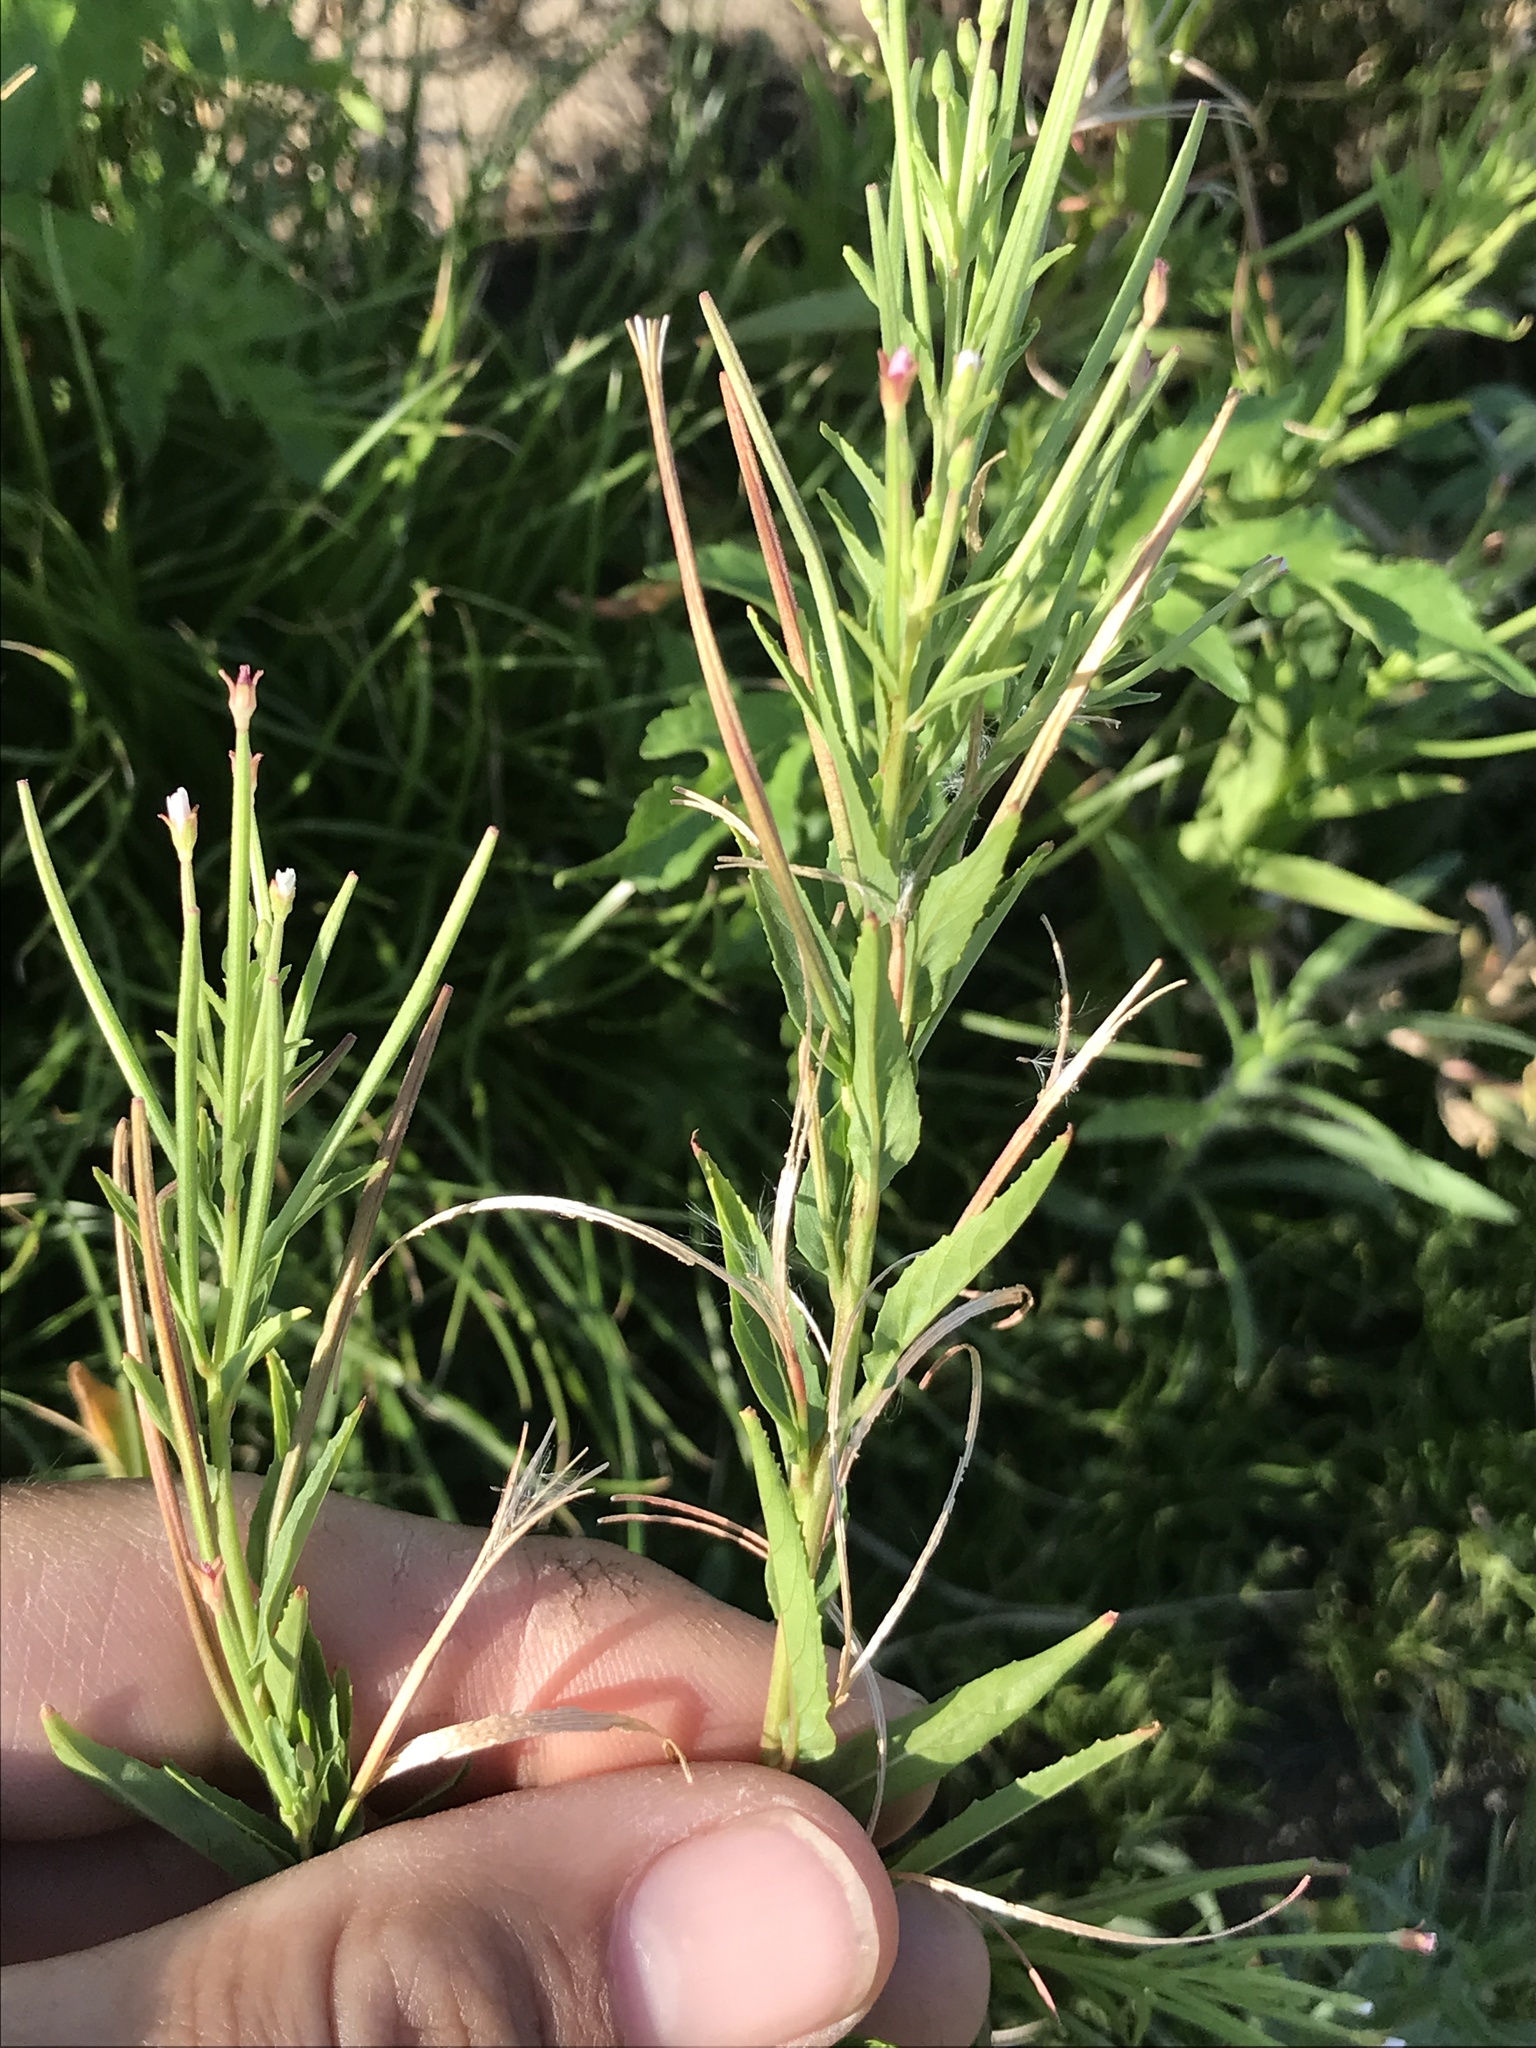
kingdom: Plantae
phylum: Tracheophyta
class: Magnoliopsida
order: Myrtales
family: Onagraceae
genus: Epilobium
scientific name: Epilobium ciliatum
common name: American willowherb
